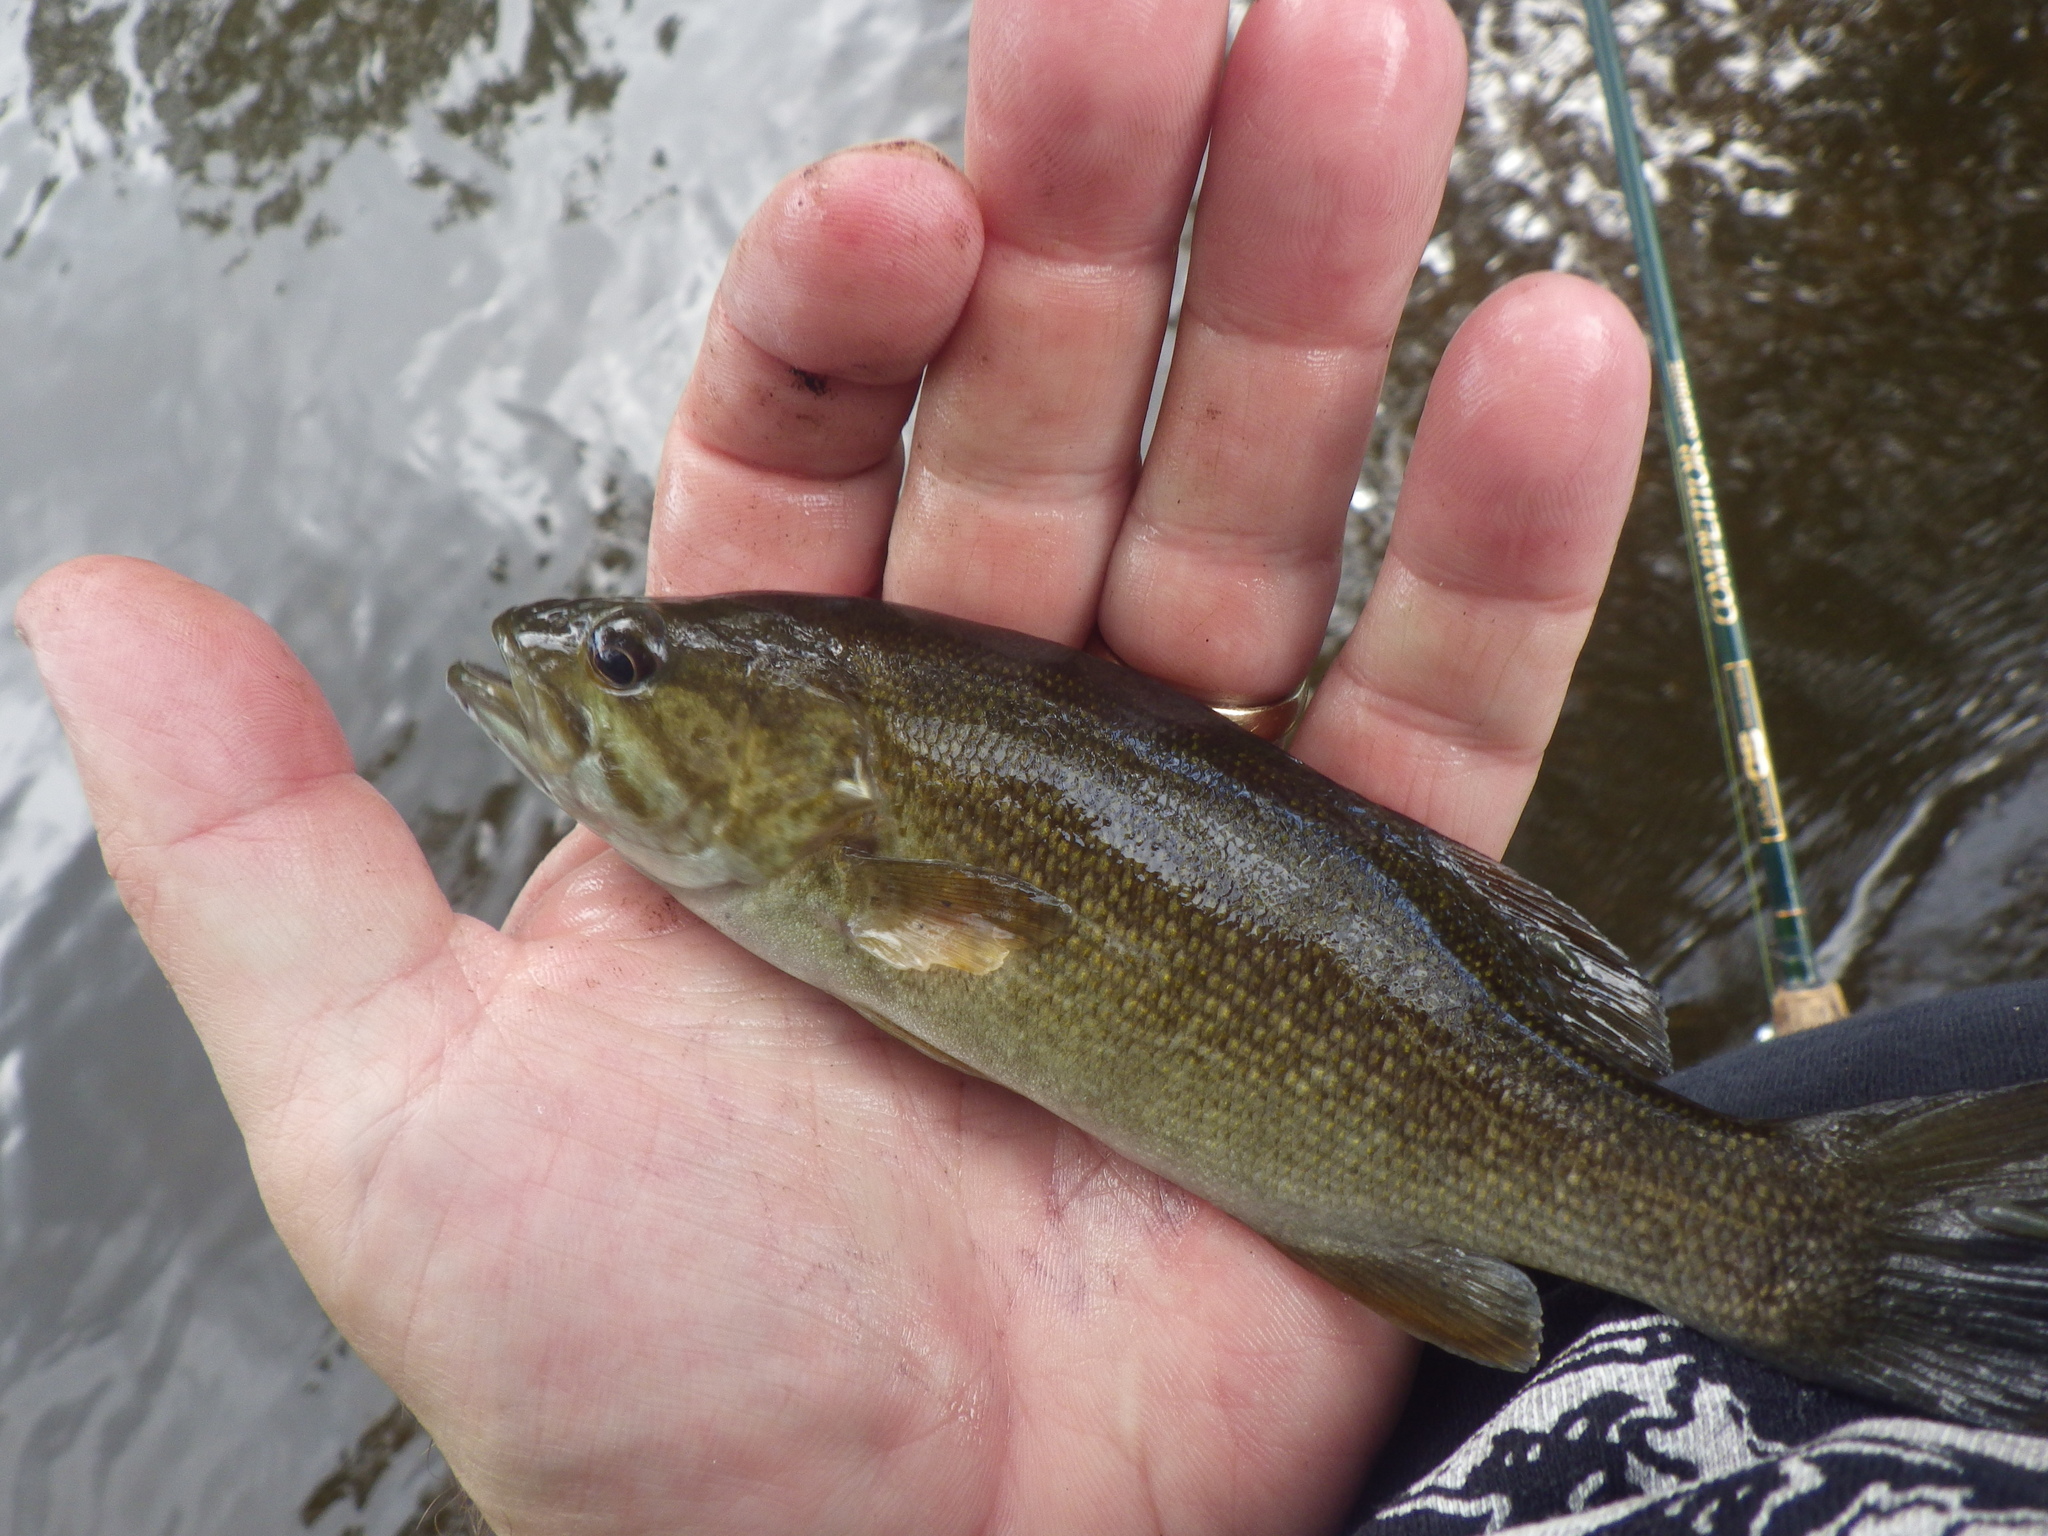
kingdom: Animalia
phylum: Chordata
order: Perciformes
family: Centrarchidae
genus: Micropterus
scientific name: Micropterus dolomieu
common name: Smallmouth bass
